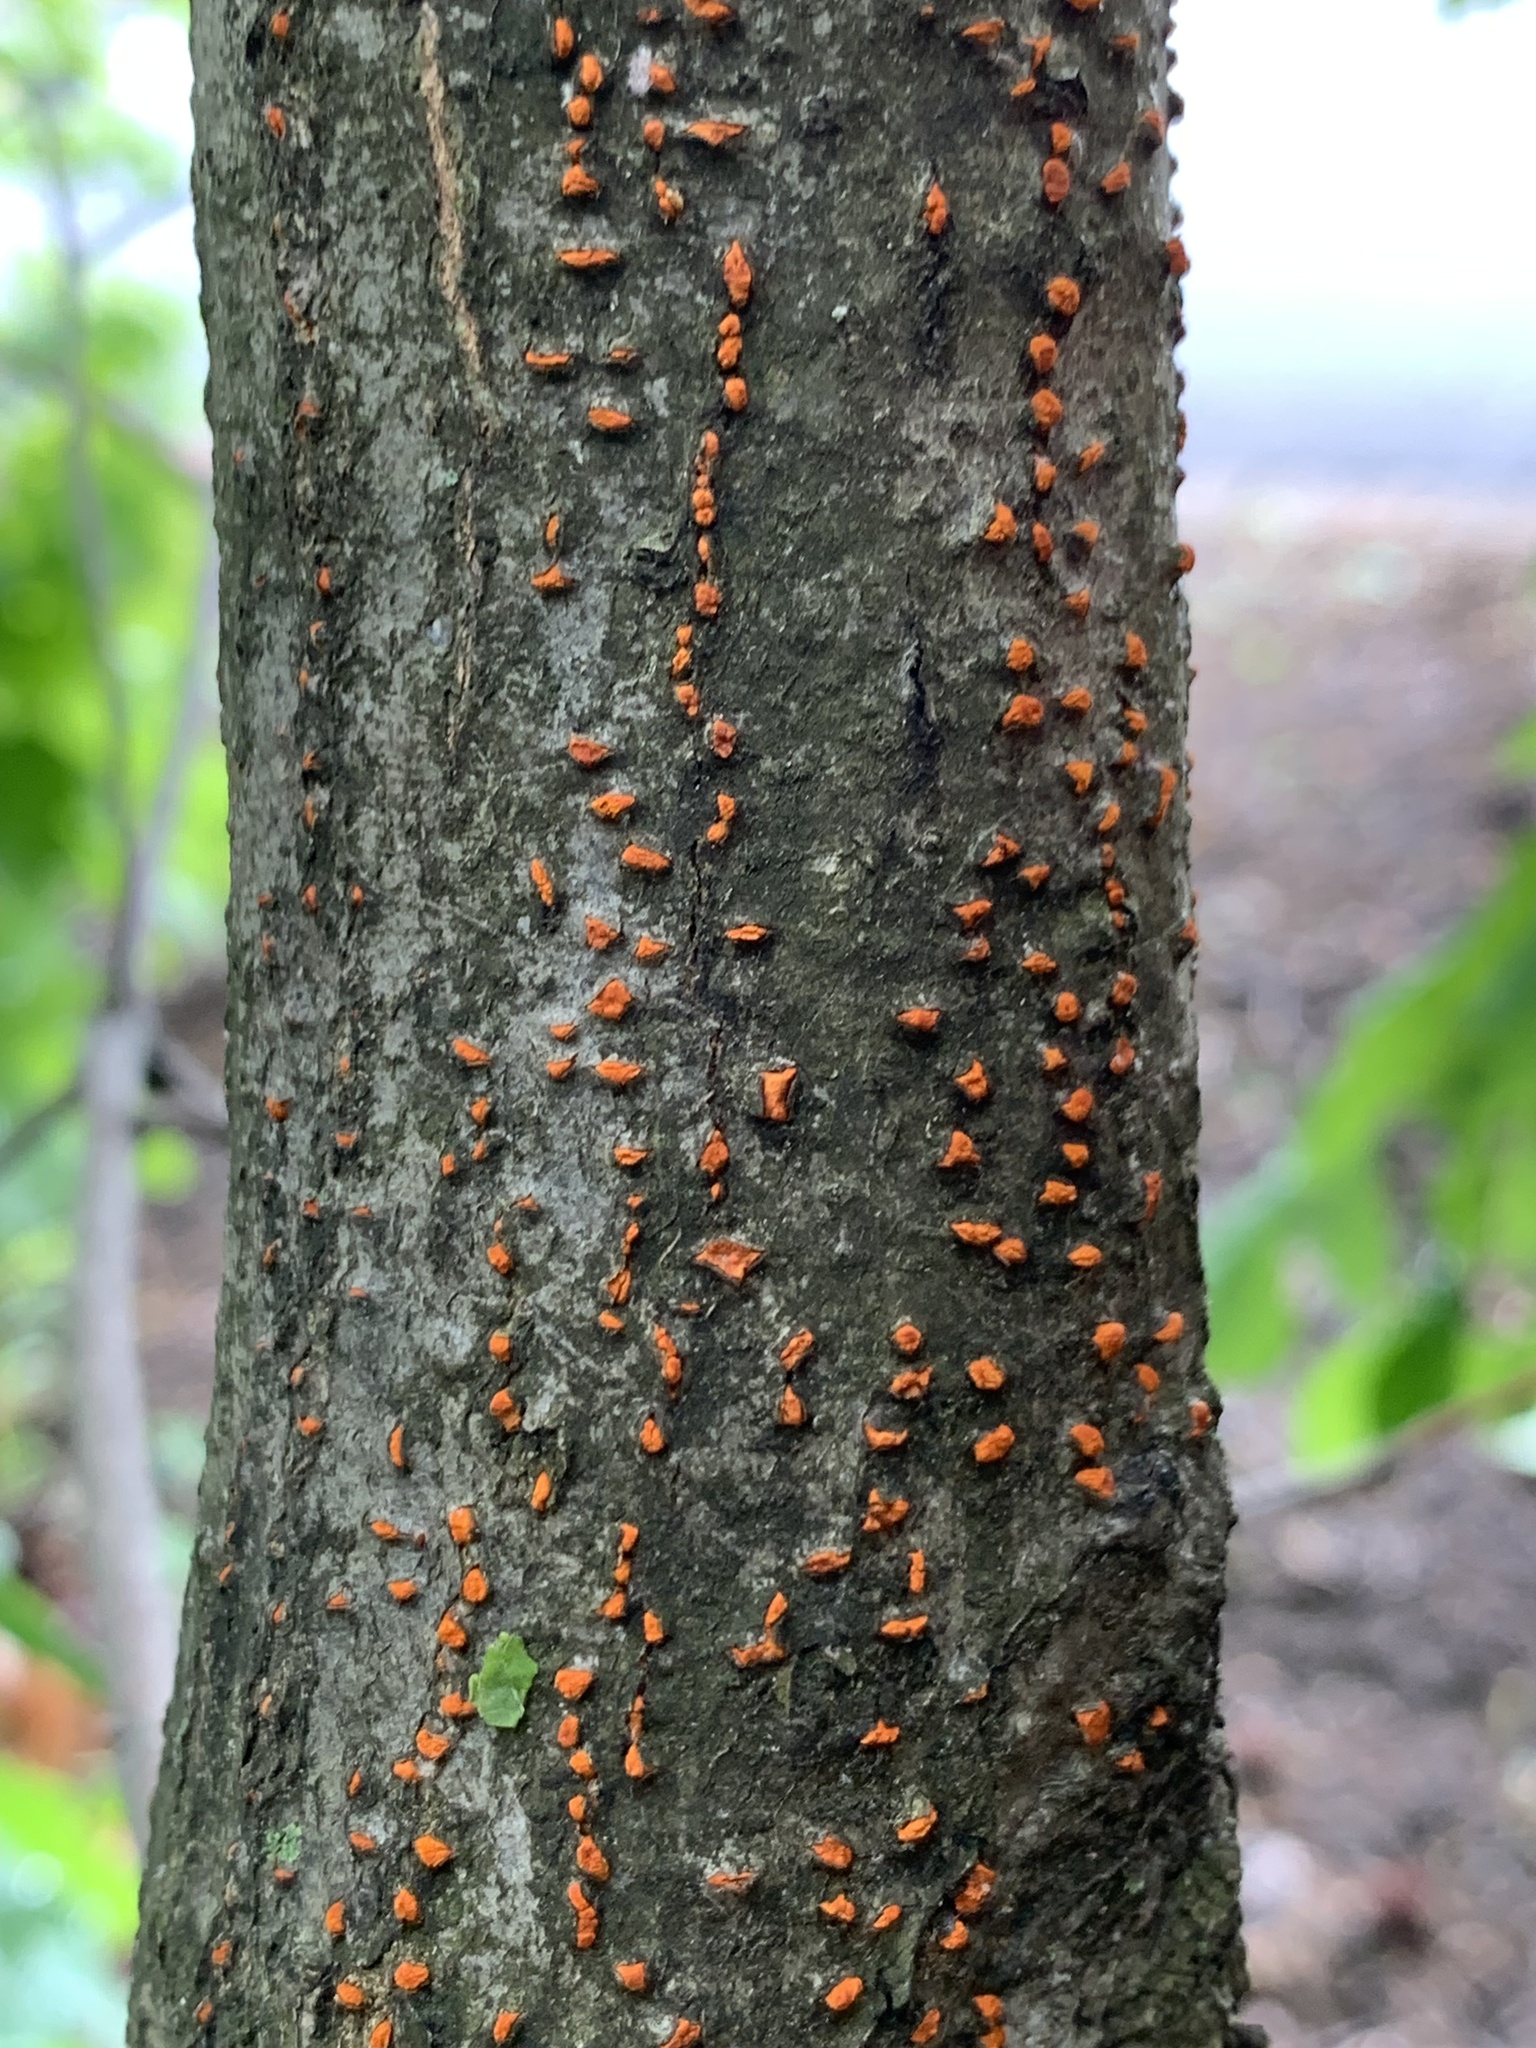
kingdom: Fungi
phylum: Ascomycota
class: Sordariomycetes
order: Diaporthales
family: Cryphonectriaceae
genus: Amphilogia
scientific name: Amphilogia gyrosa
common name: Orange hobnail canker
